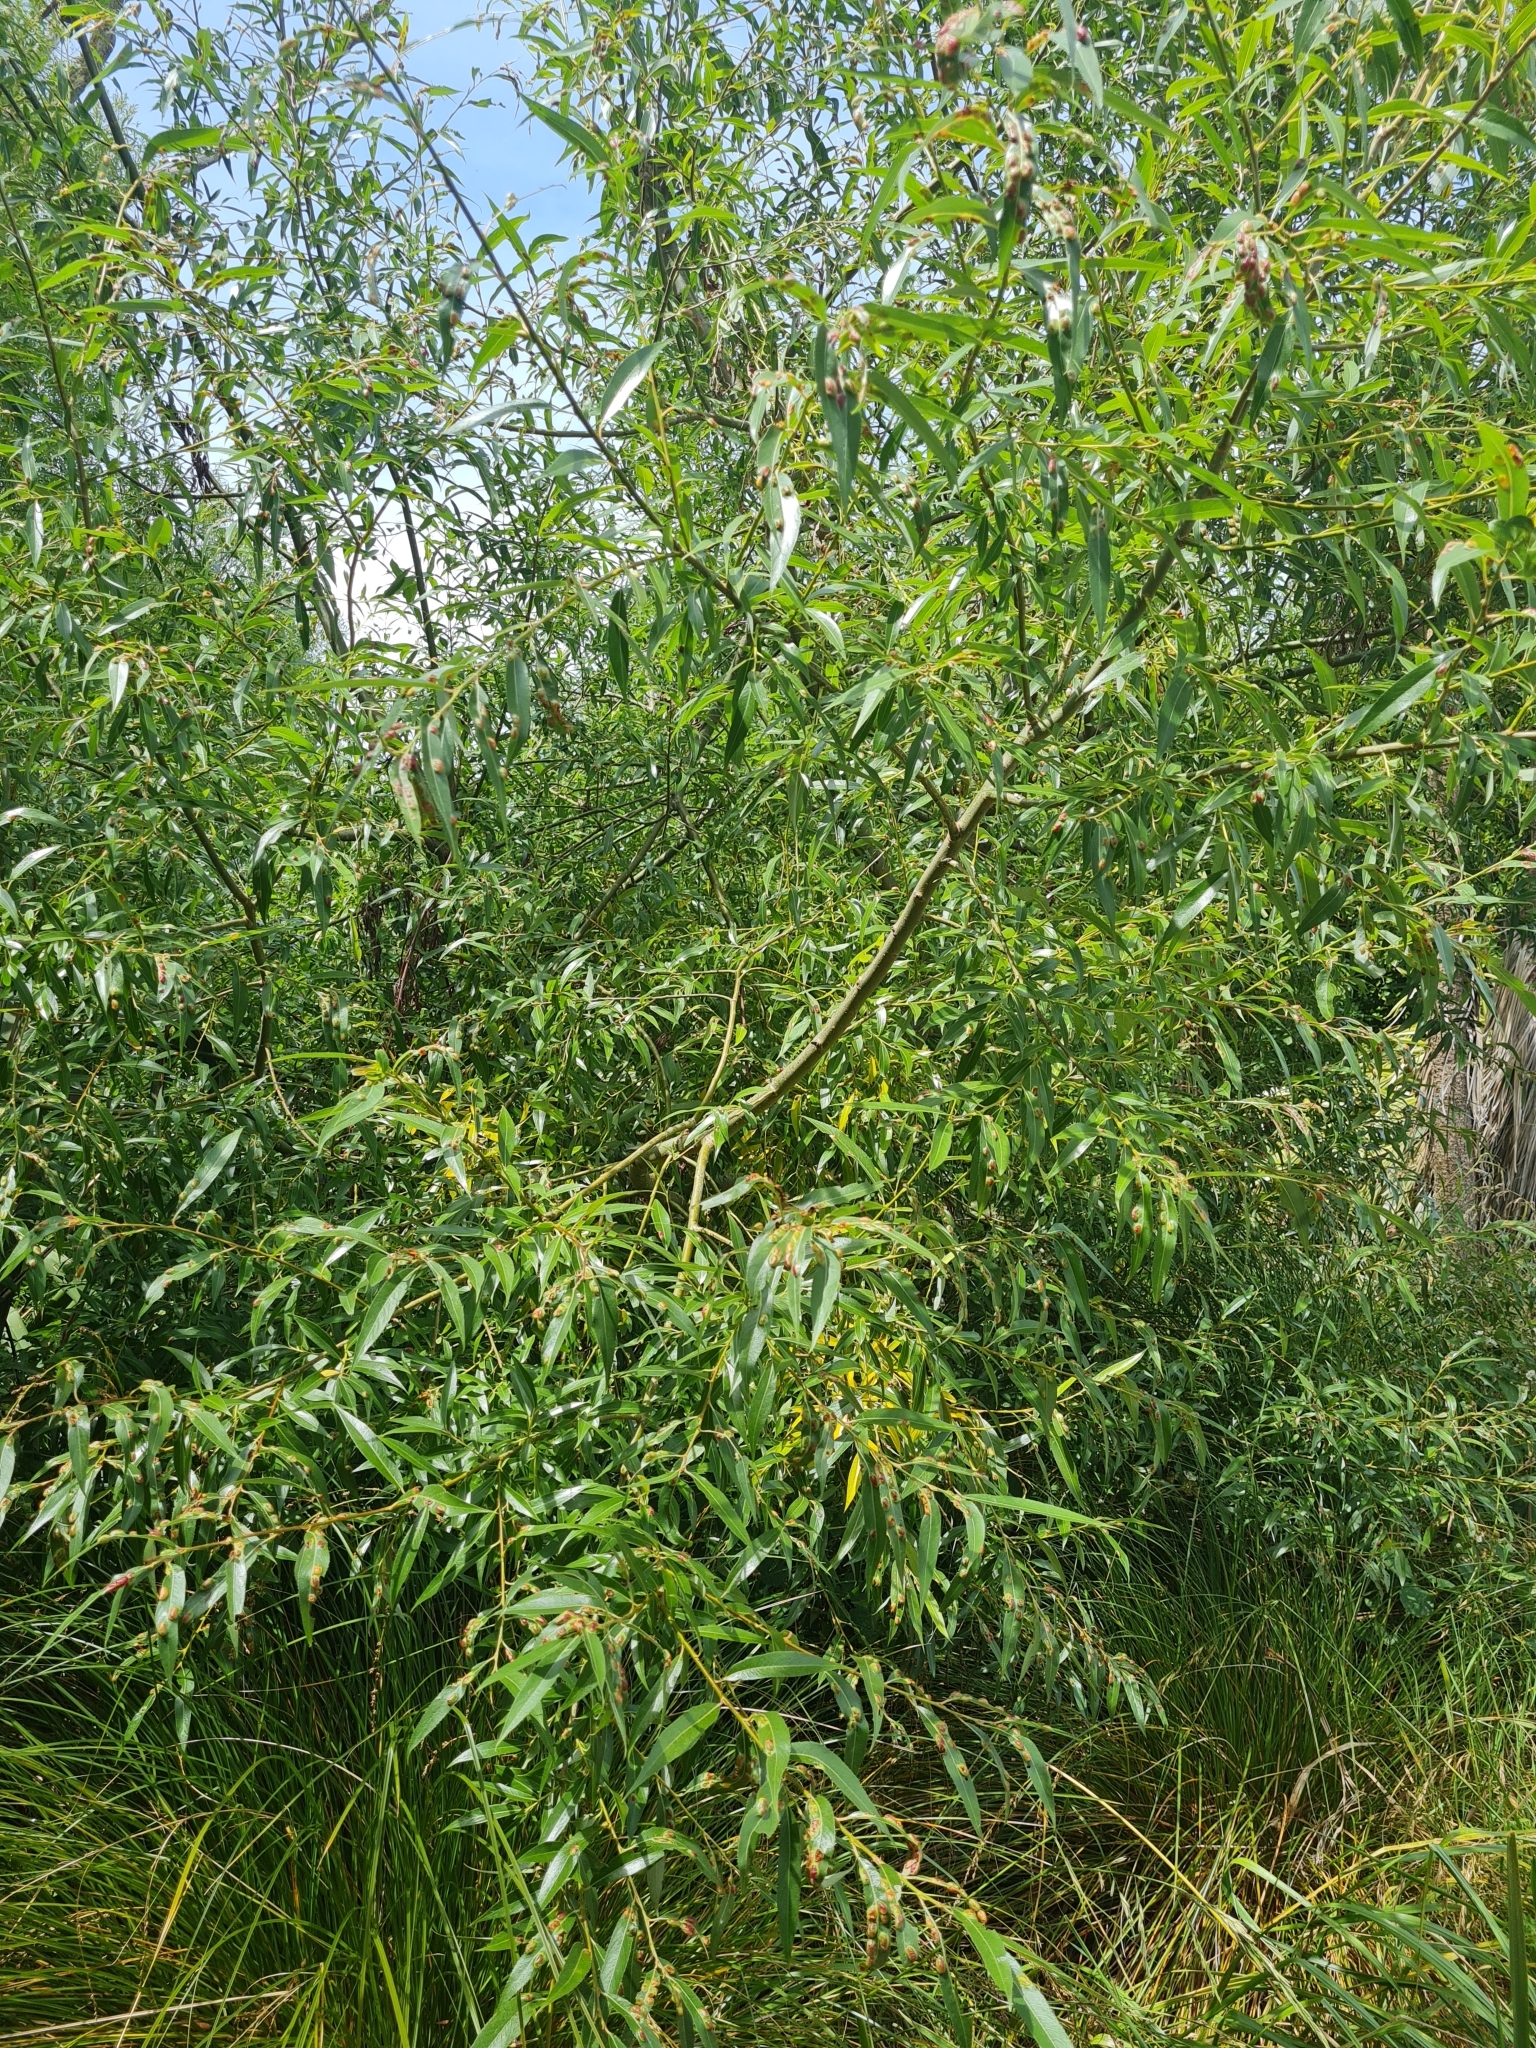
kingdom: Plantae
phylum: Tracheophyta
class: Magnoliopsida
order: Malpighiales
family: Salicaceae
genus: Salix
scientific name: Salix fragilis
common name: Crack willow
